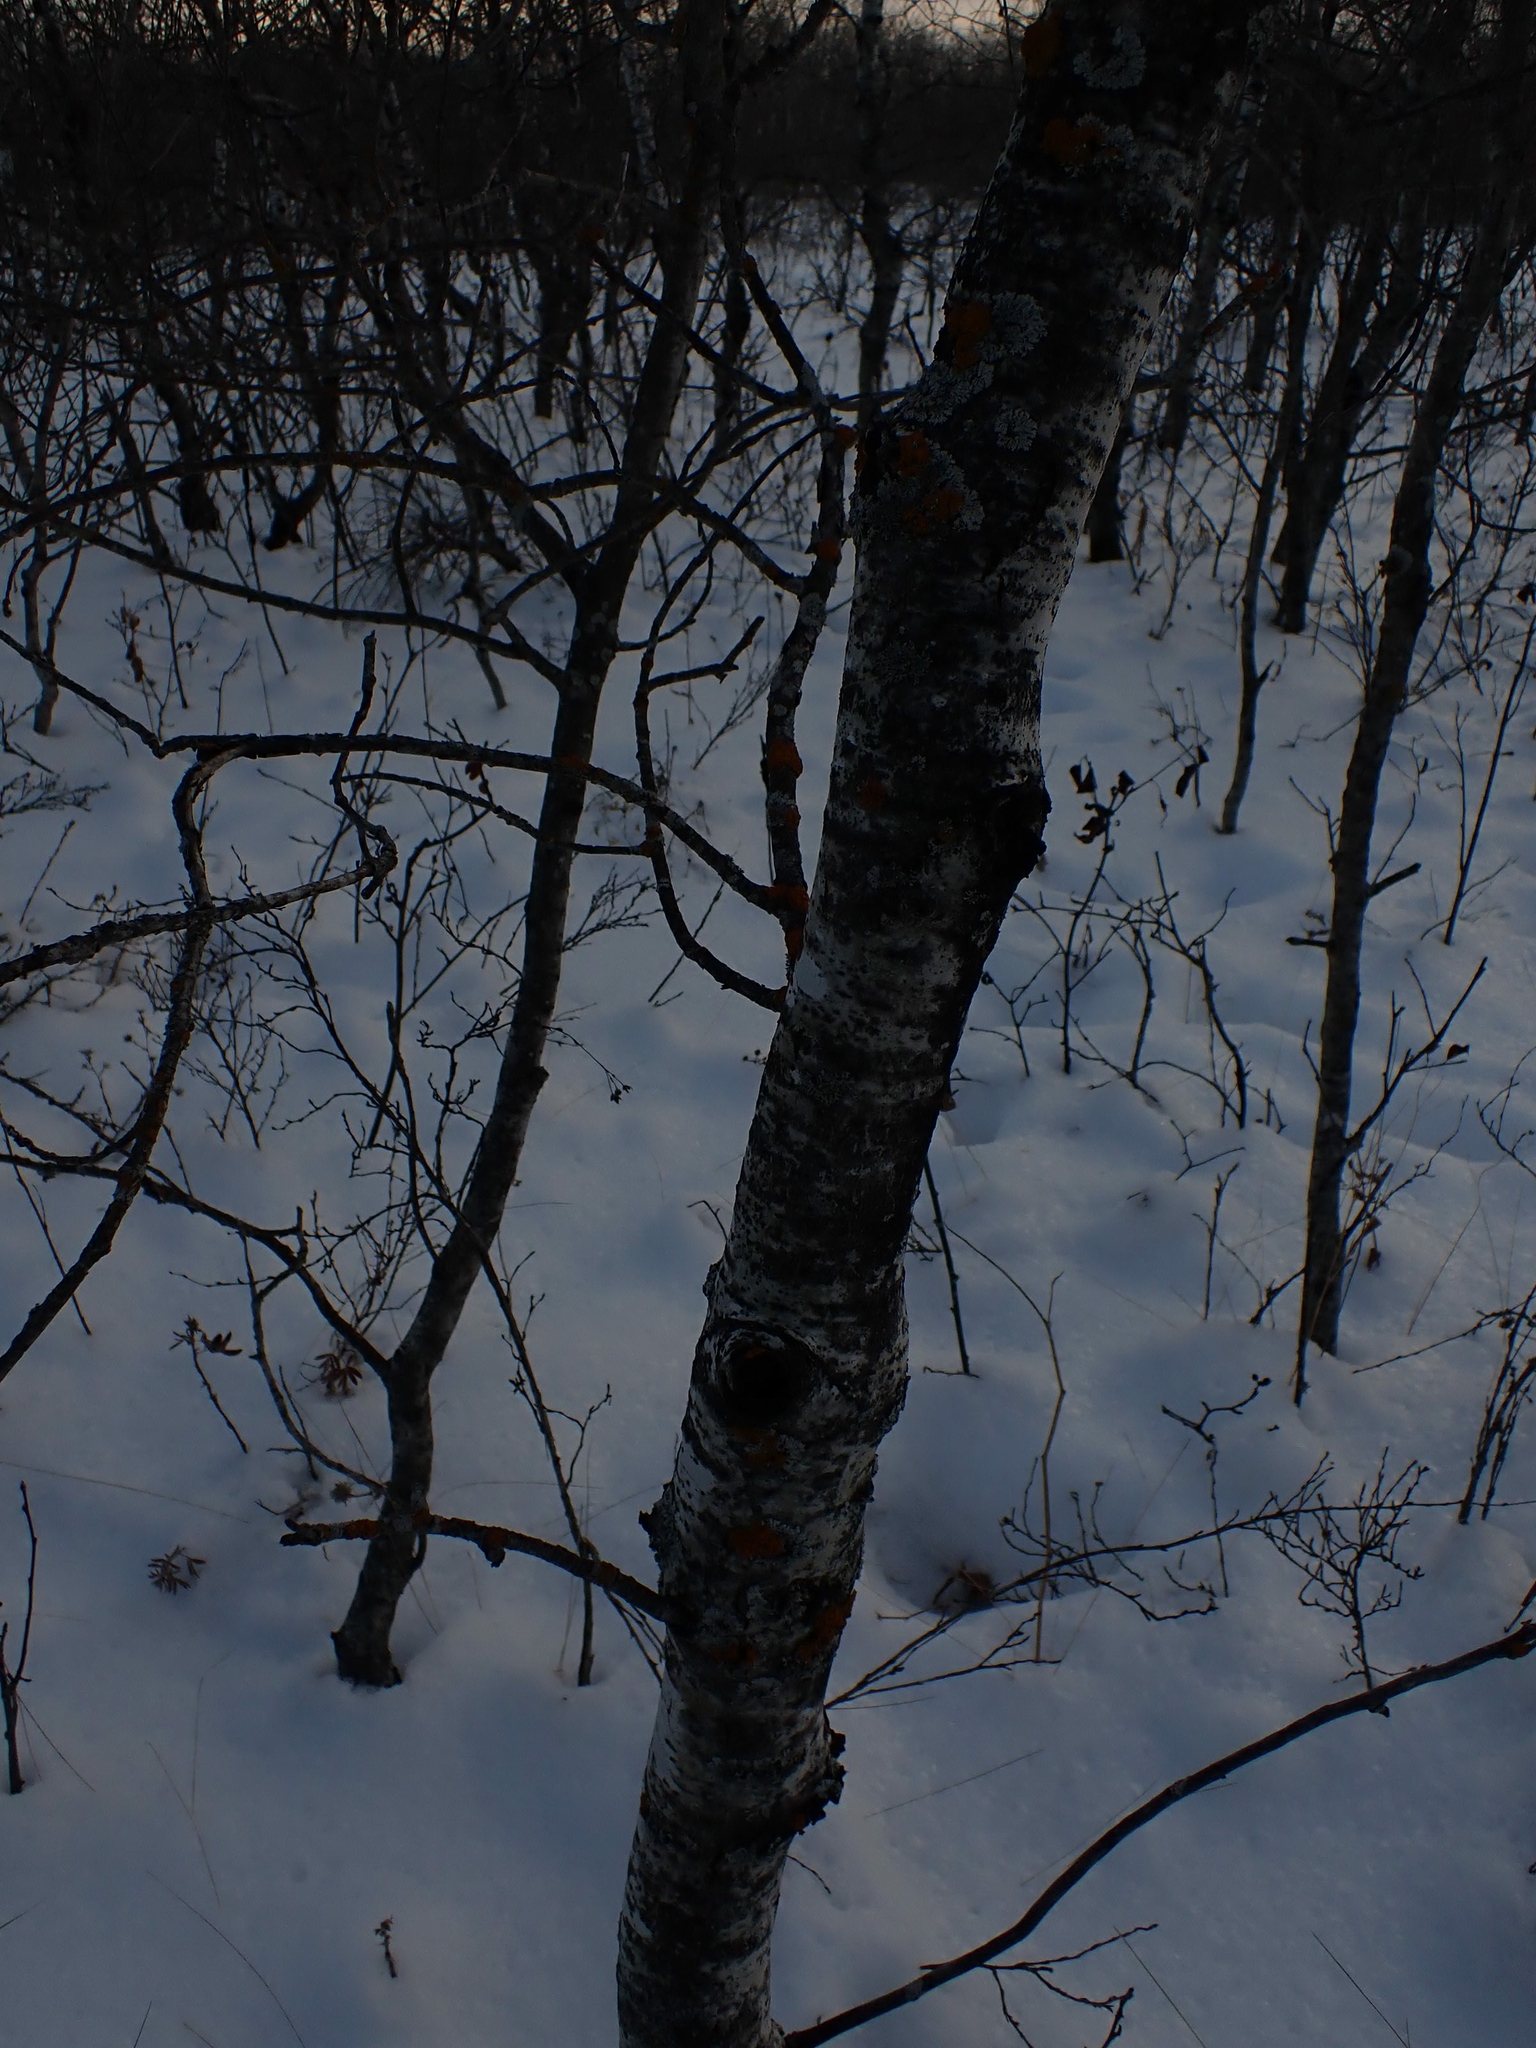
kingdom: Plantae
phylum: Tracheophyta
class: Magnoliopsida
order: Malpighiales
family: Salicaceae
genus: Populus
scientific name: Populus tremuloides
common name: Quaking aspen
